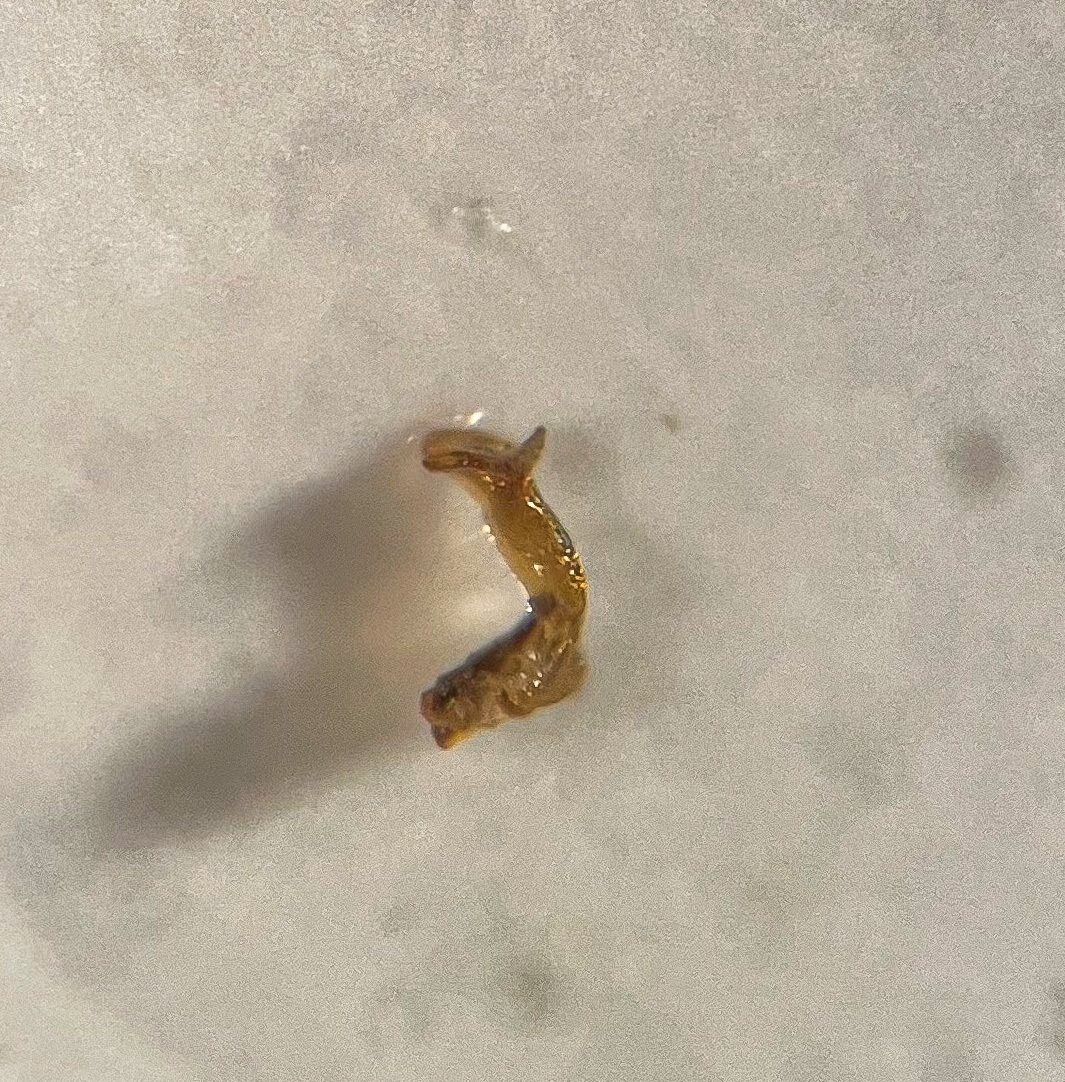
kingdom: Animalia
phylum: Arthropoda
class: Insecta
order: Hemiptera
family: Delphacidae
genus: Delphacodes
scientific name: Delphacodes capnodes
